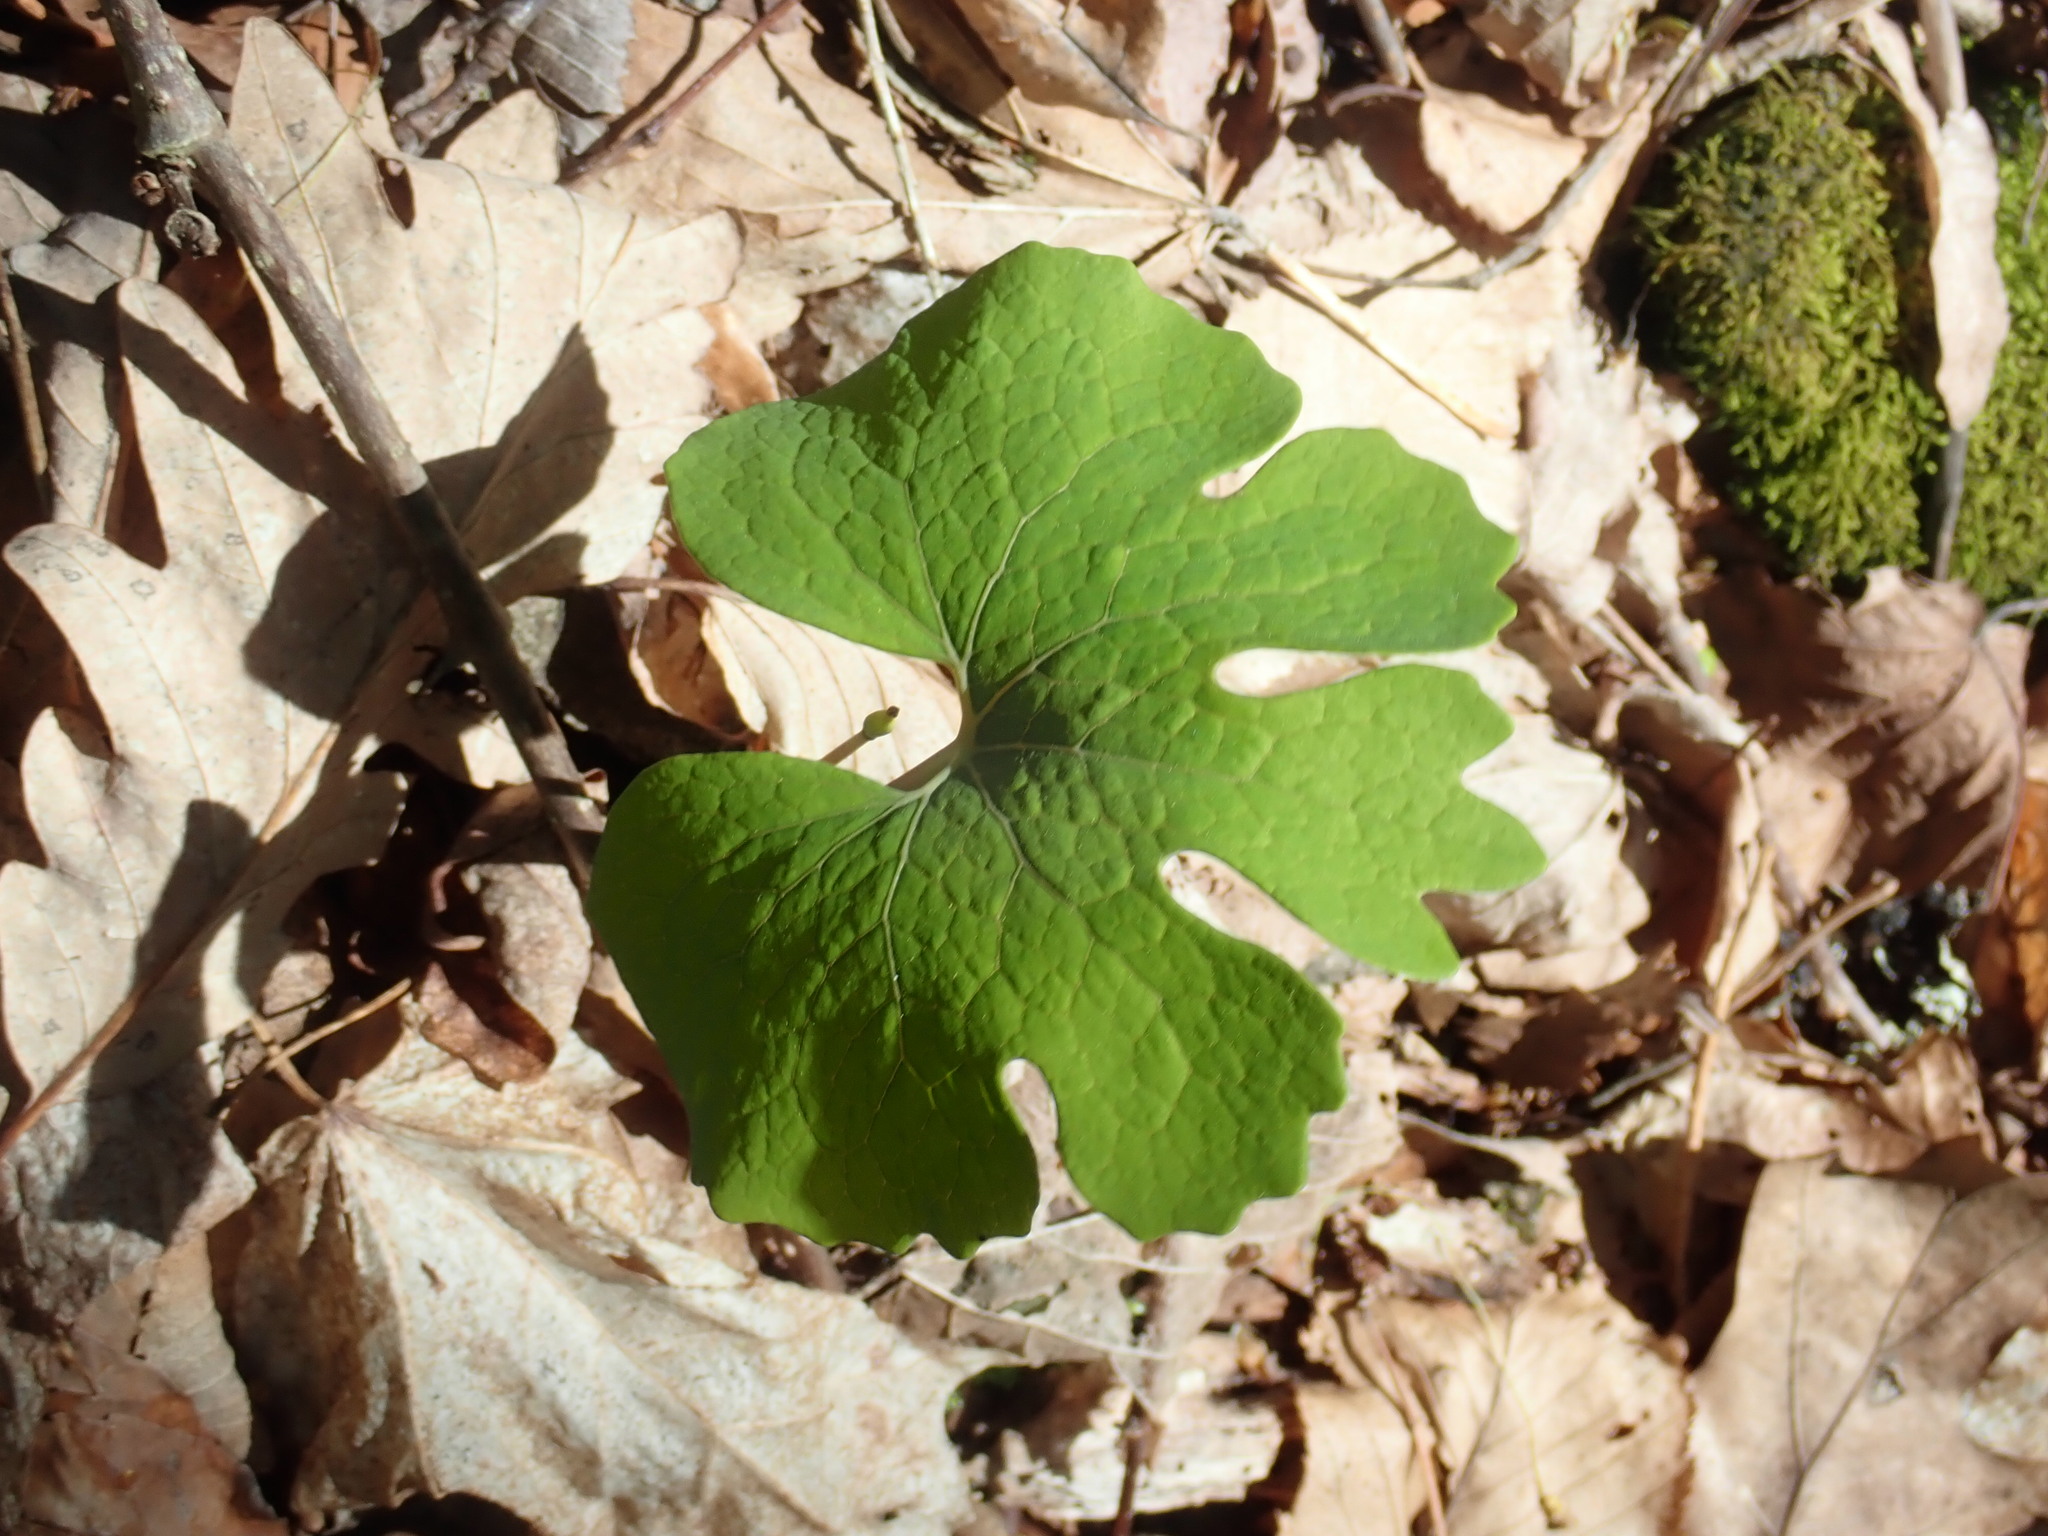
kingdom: Plantae
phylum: Tracheophyta
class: Magnoliopsida
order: Ranunculales
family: Papaveraceae
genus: Sanguinaria
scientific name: Sanguinaria canadensis
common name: Bloodroot
